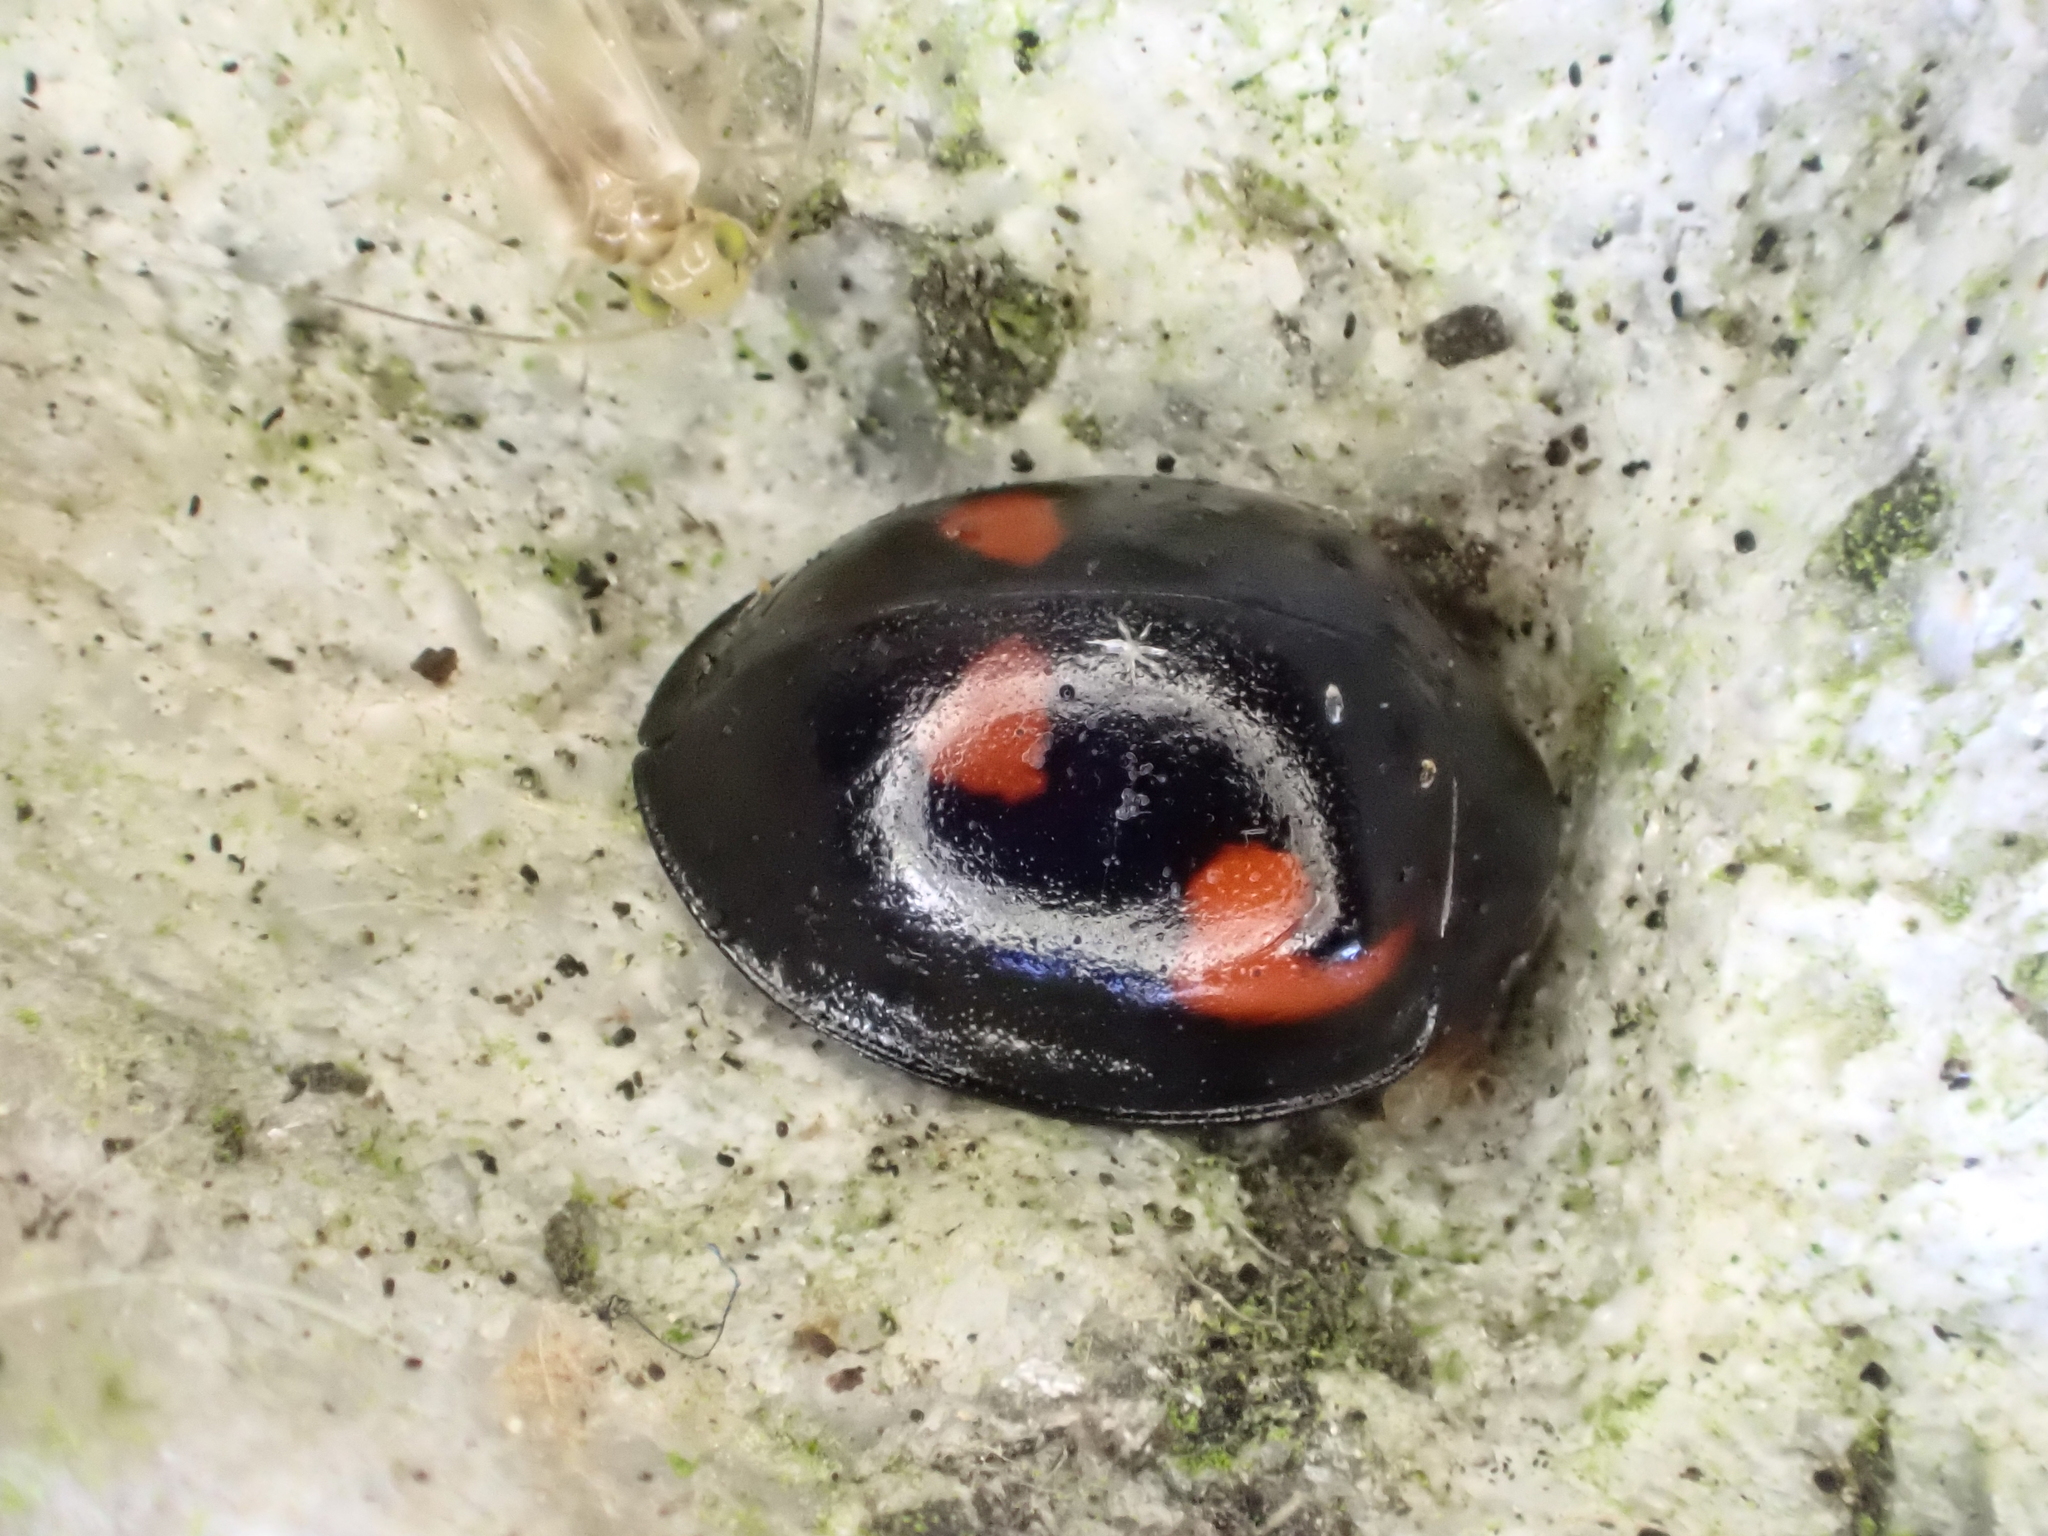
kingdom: Animalia
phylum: Arthropoda
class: Insecta
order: Coleoptera
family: Coccinellidae
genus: Brumus
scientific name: Brumus quadripustulatus
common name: Ladybird beetle
